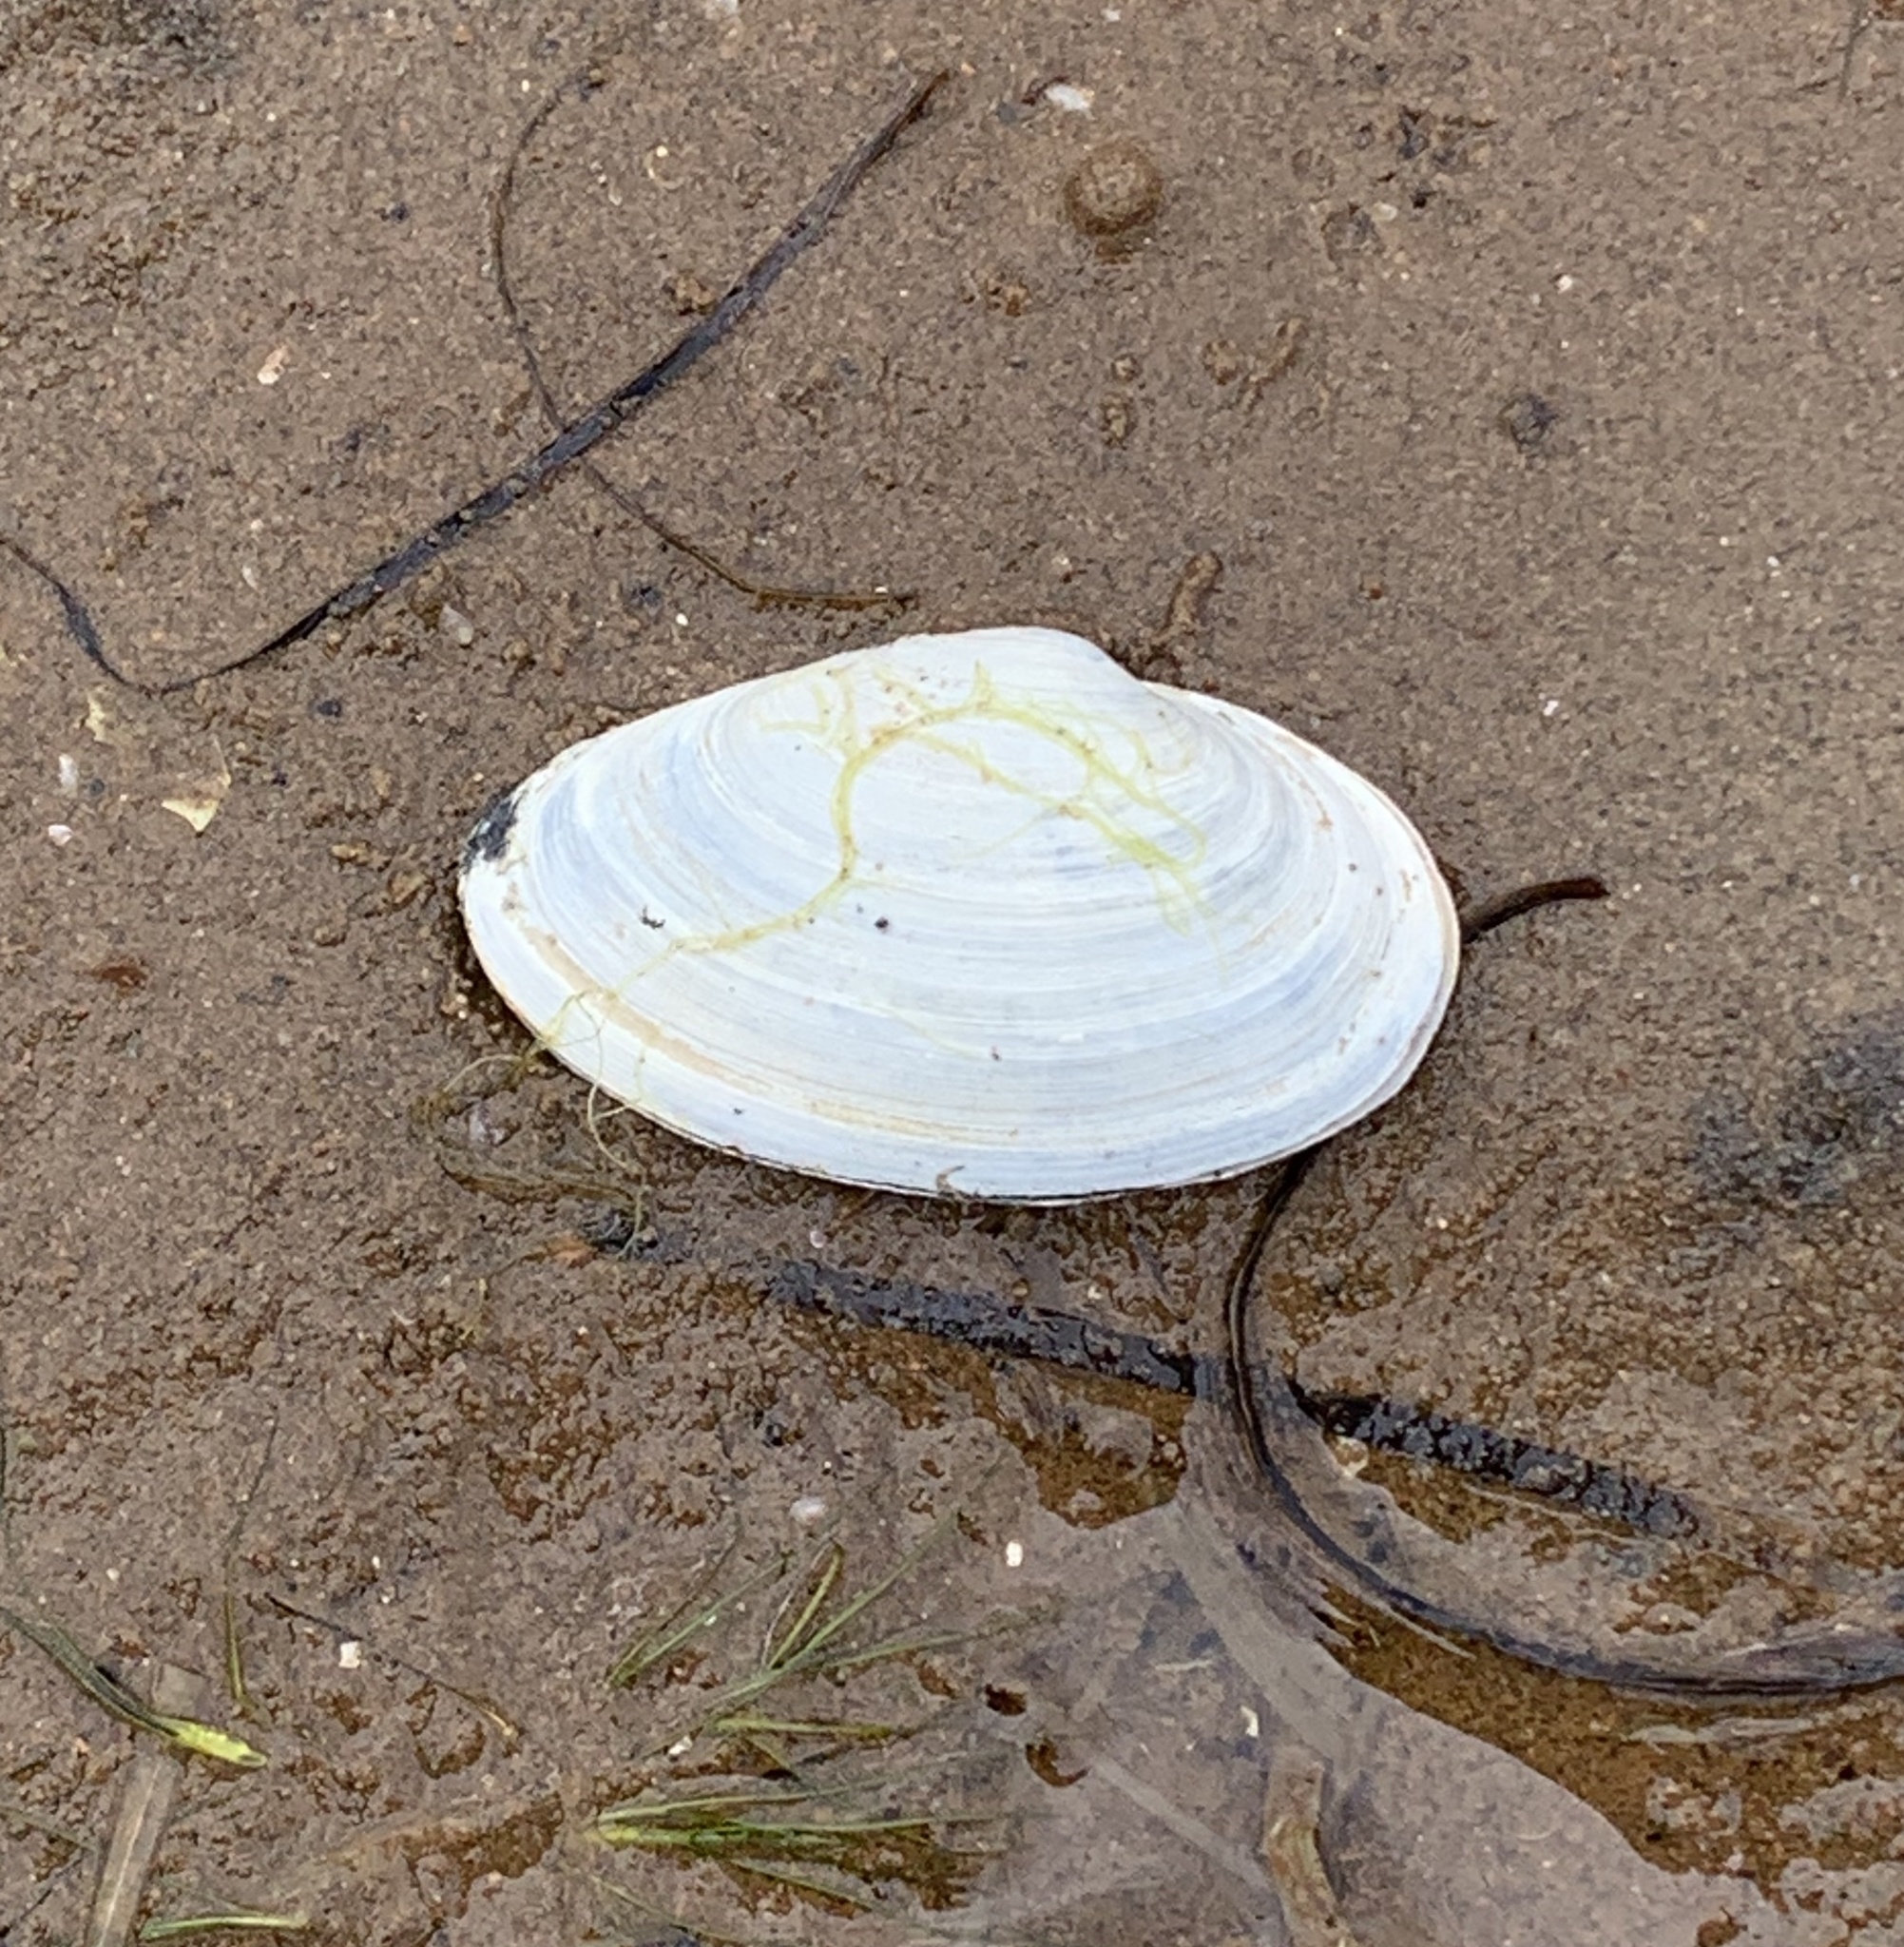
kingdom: Animalia
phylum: Mollusca
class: Bivalvia
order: Myida
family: Myidae
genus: Mya
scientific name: Mya arenaria
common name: Soft-shelled clam
